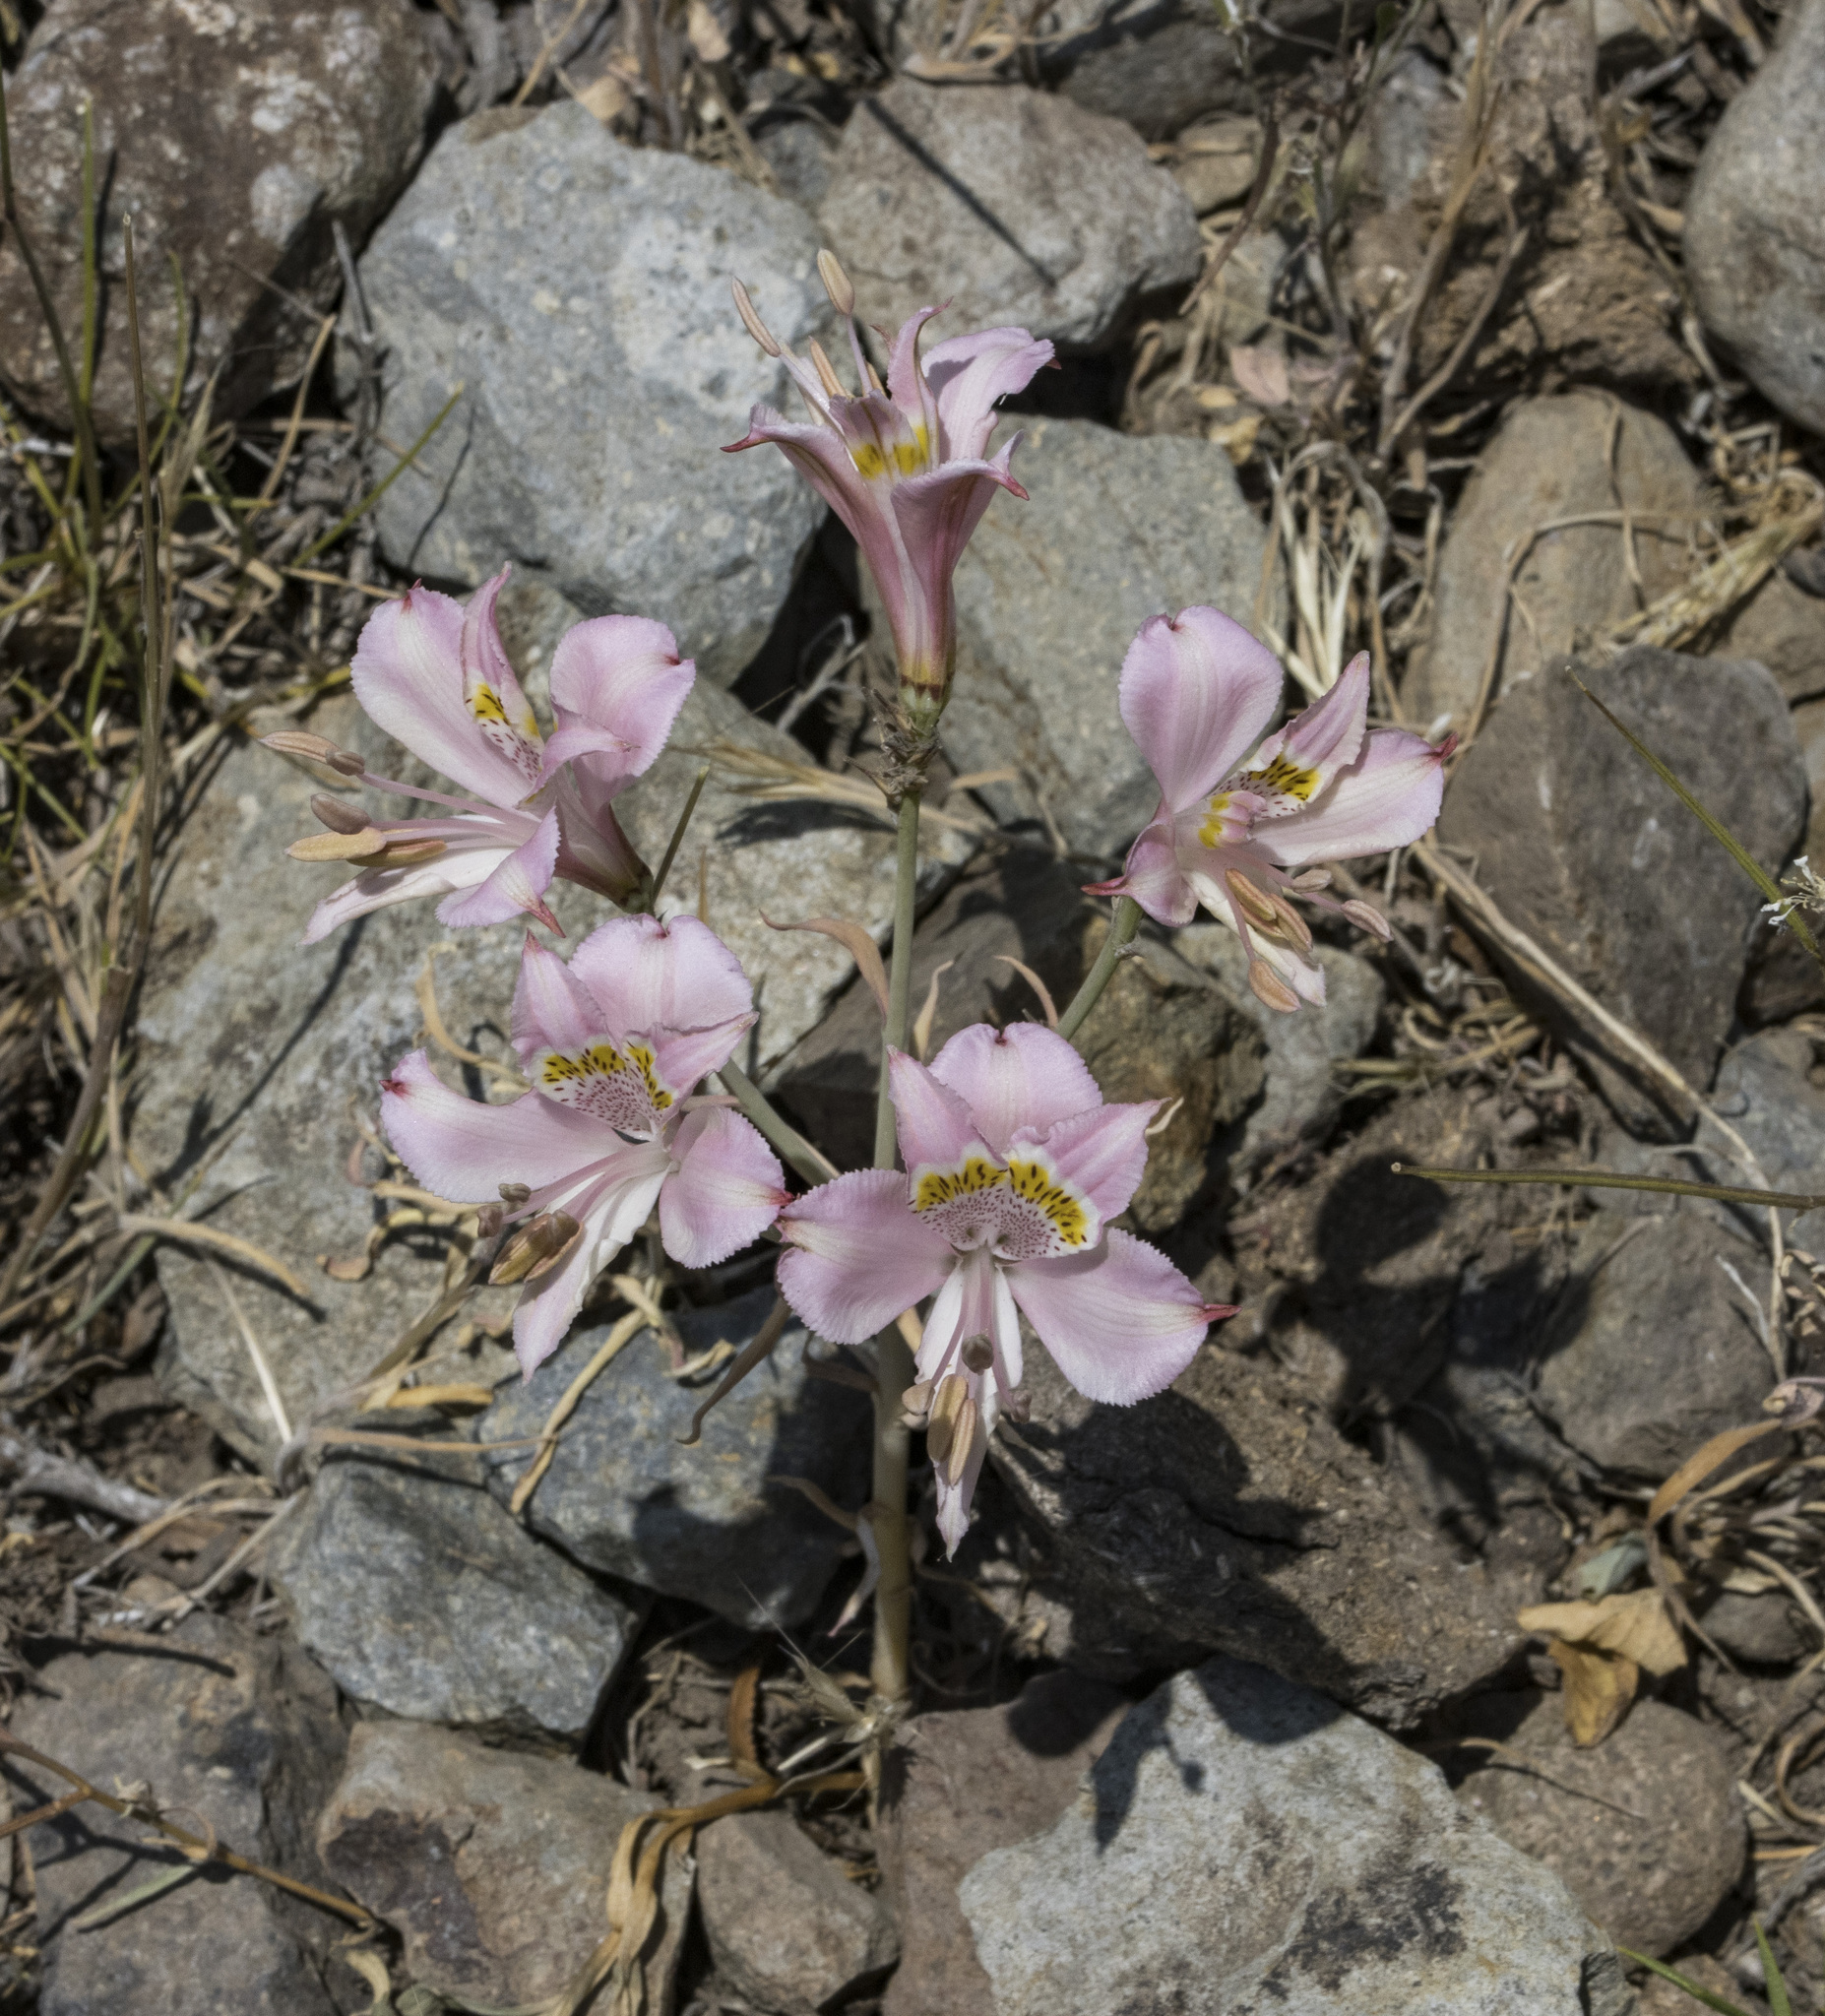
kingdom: Plantae
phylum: Tracheophyta
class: Liliopsida
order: Liliales
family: Alstroemeriaceae
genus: Alstroemeria
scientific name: Alstroemeria pallida
